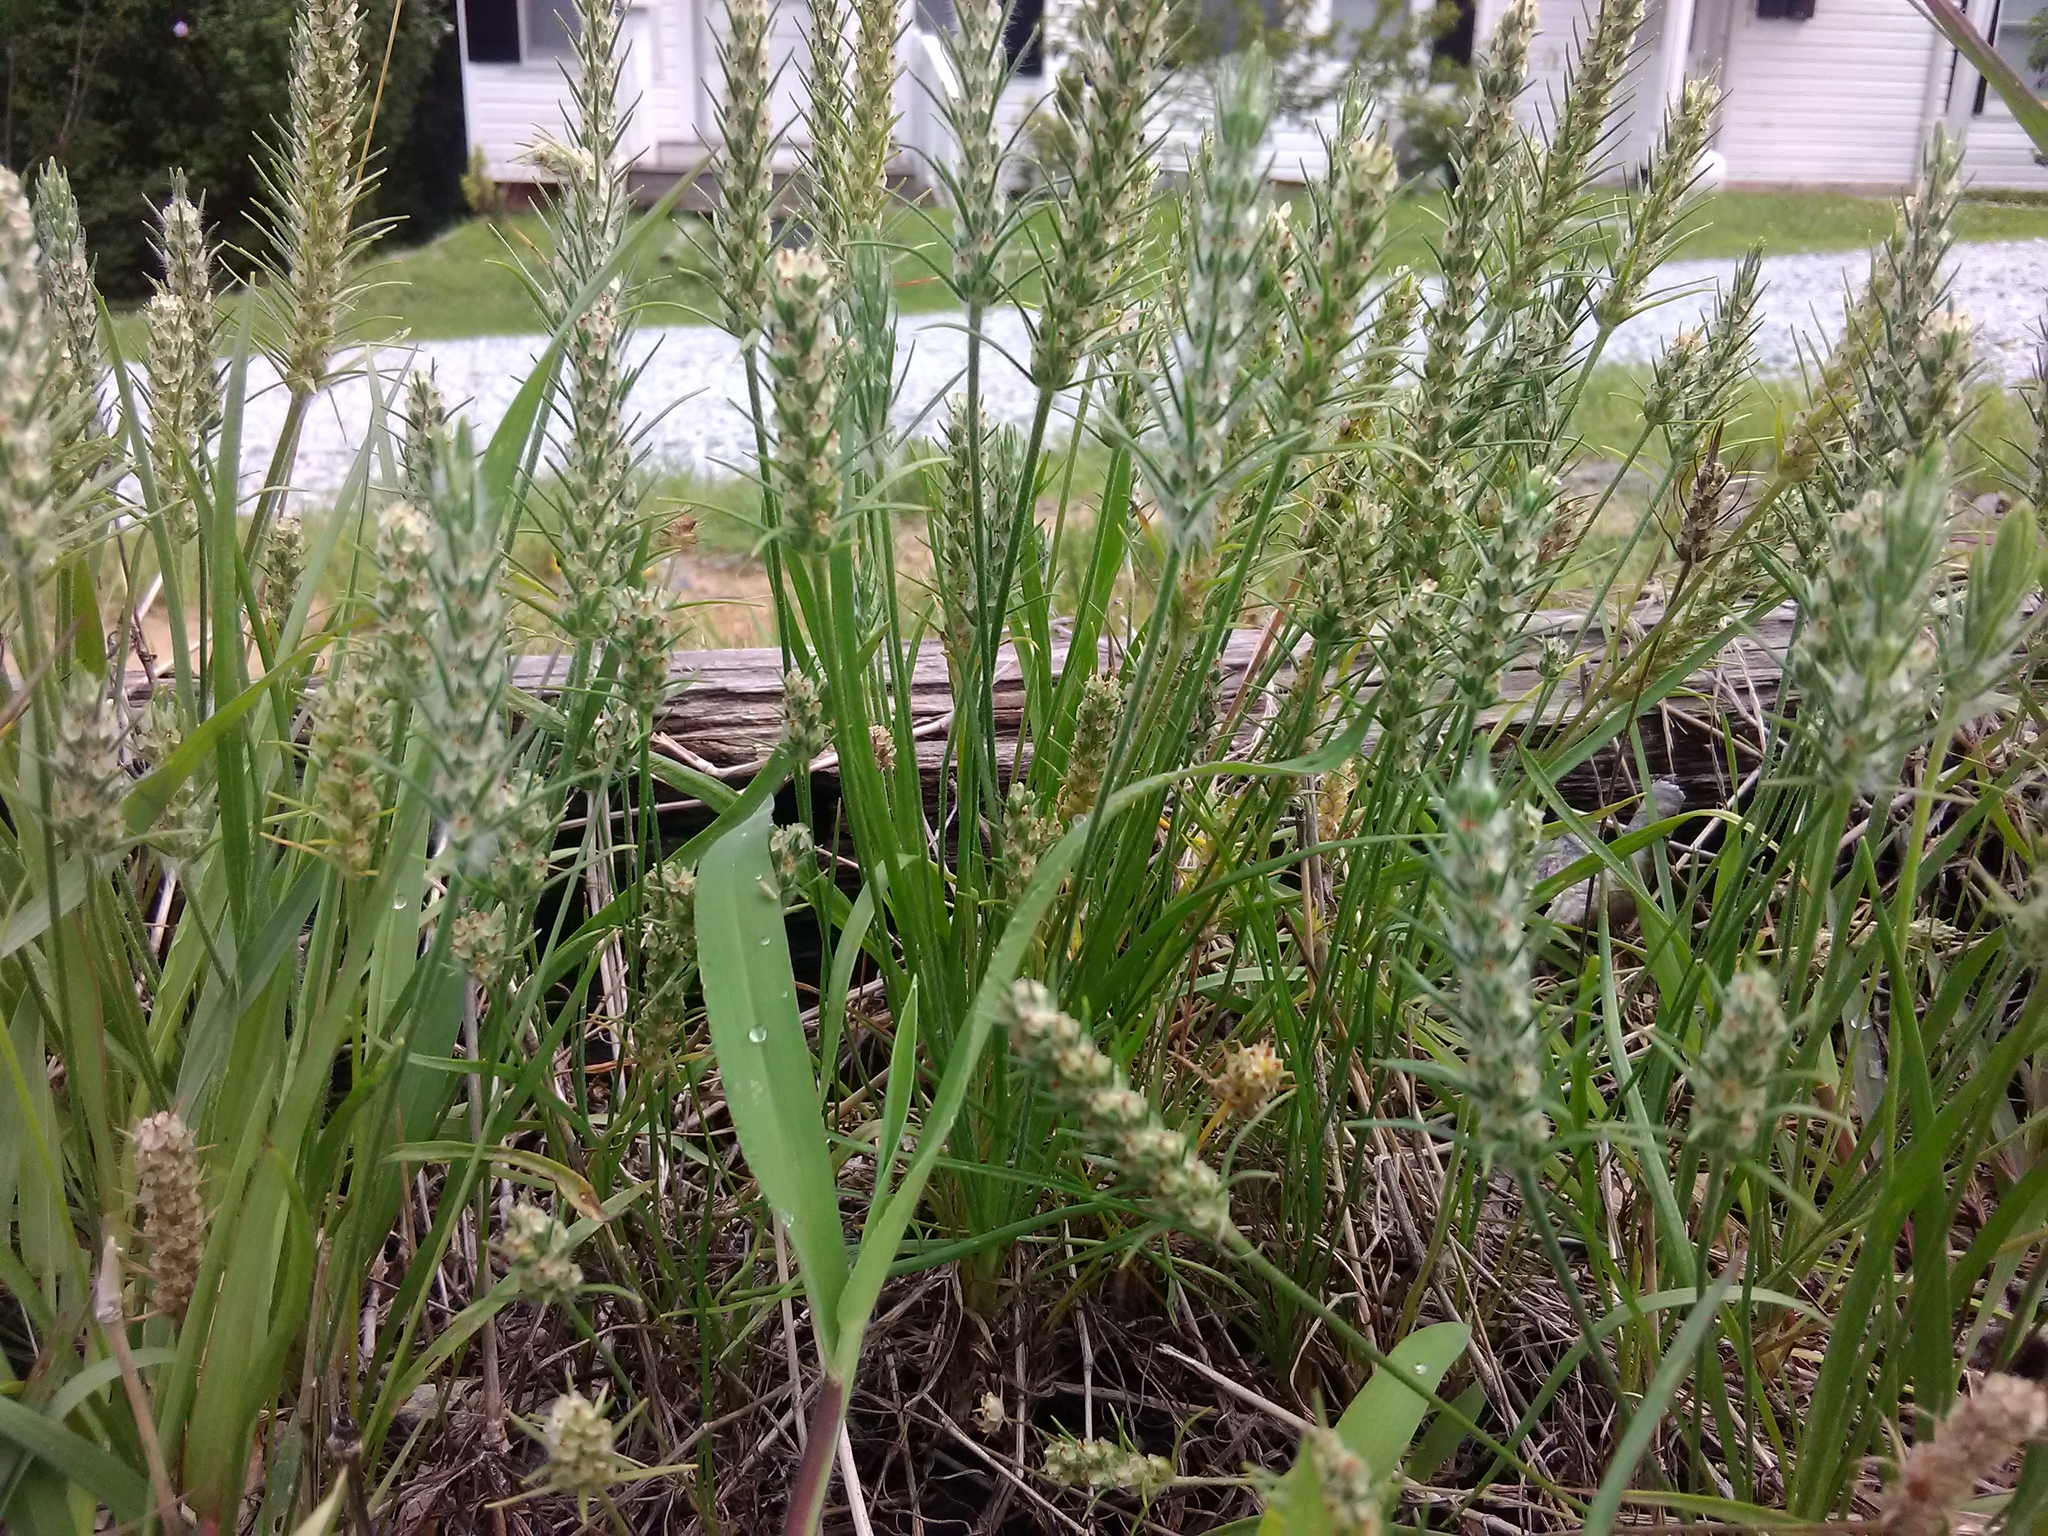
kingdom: Plantae
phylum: Tracheophyta
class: Magnoliopsida
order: Lamiales
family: Plantaginaceae
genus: Plantago
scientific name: Plantago aristata
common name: Bracted plantain
